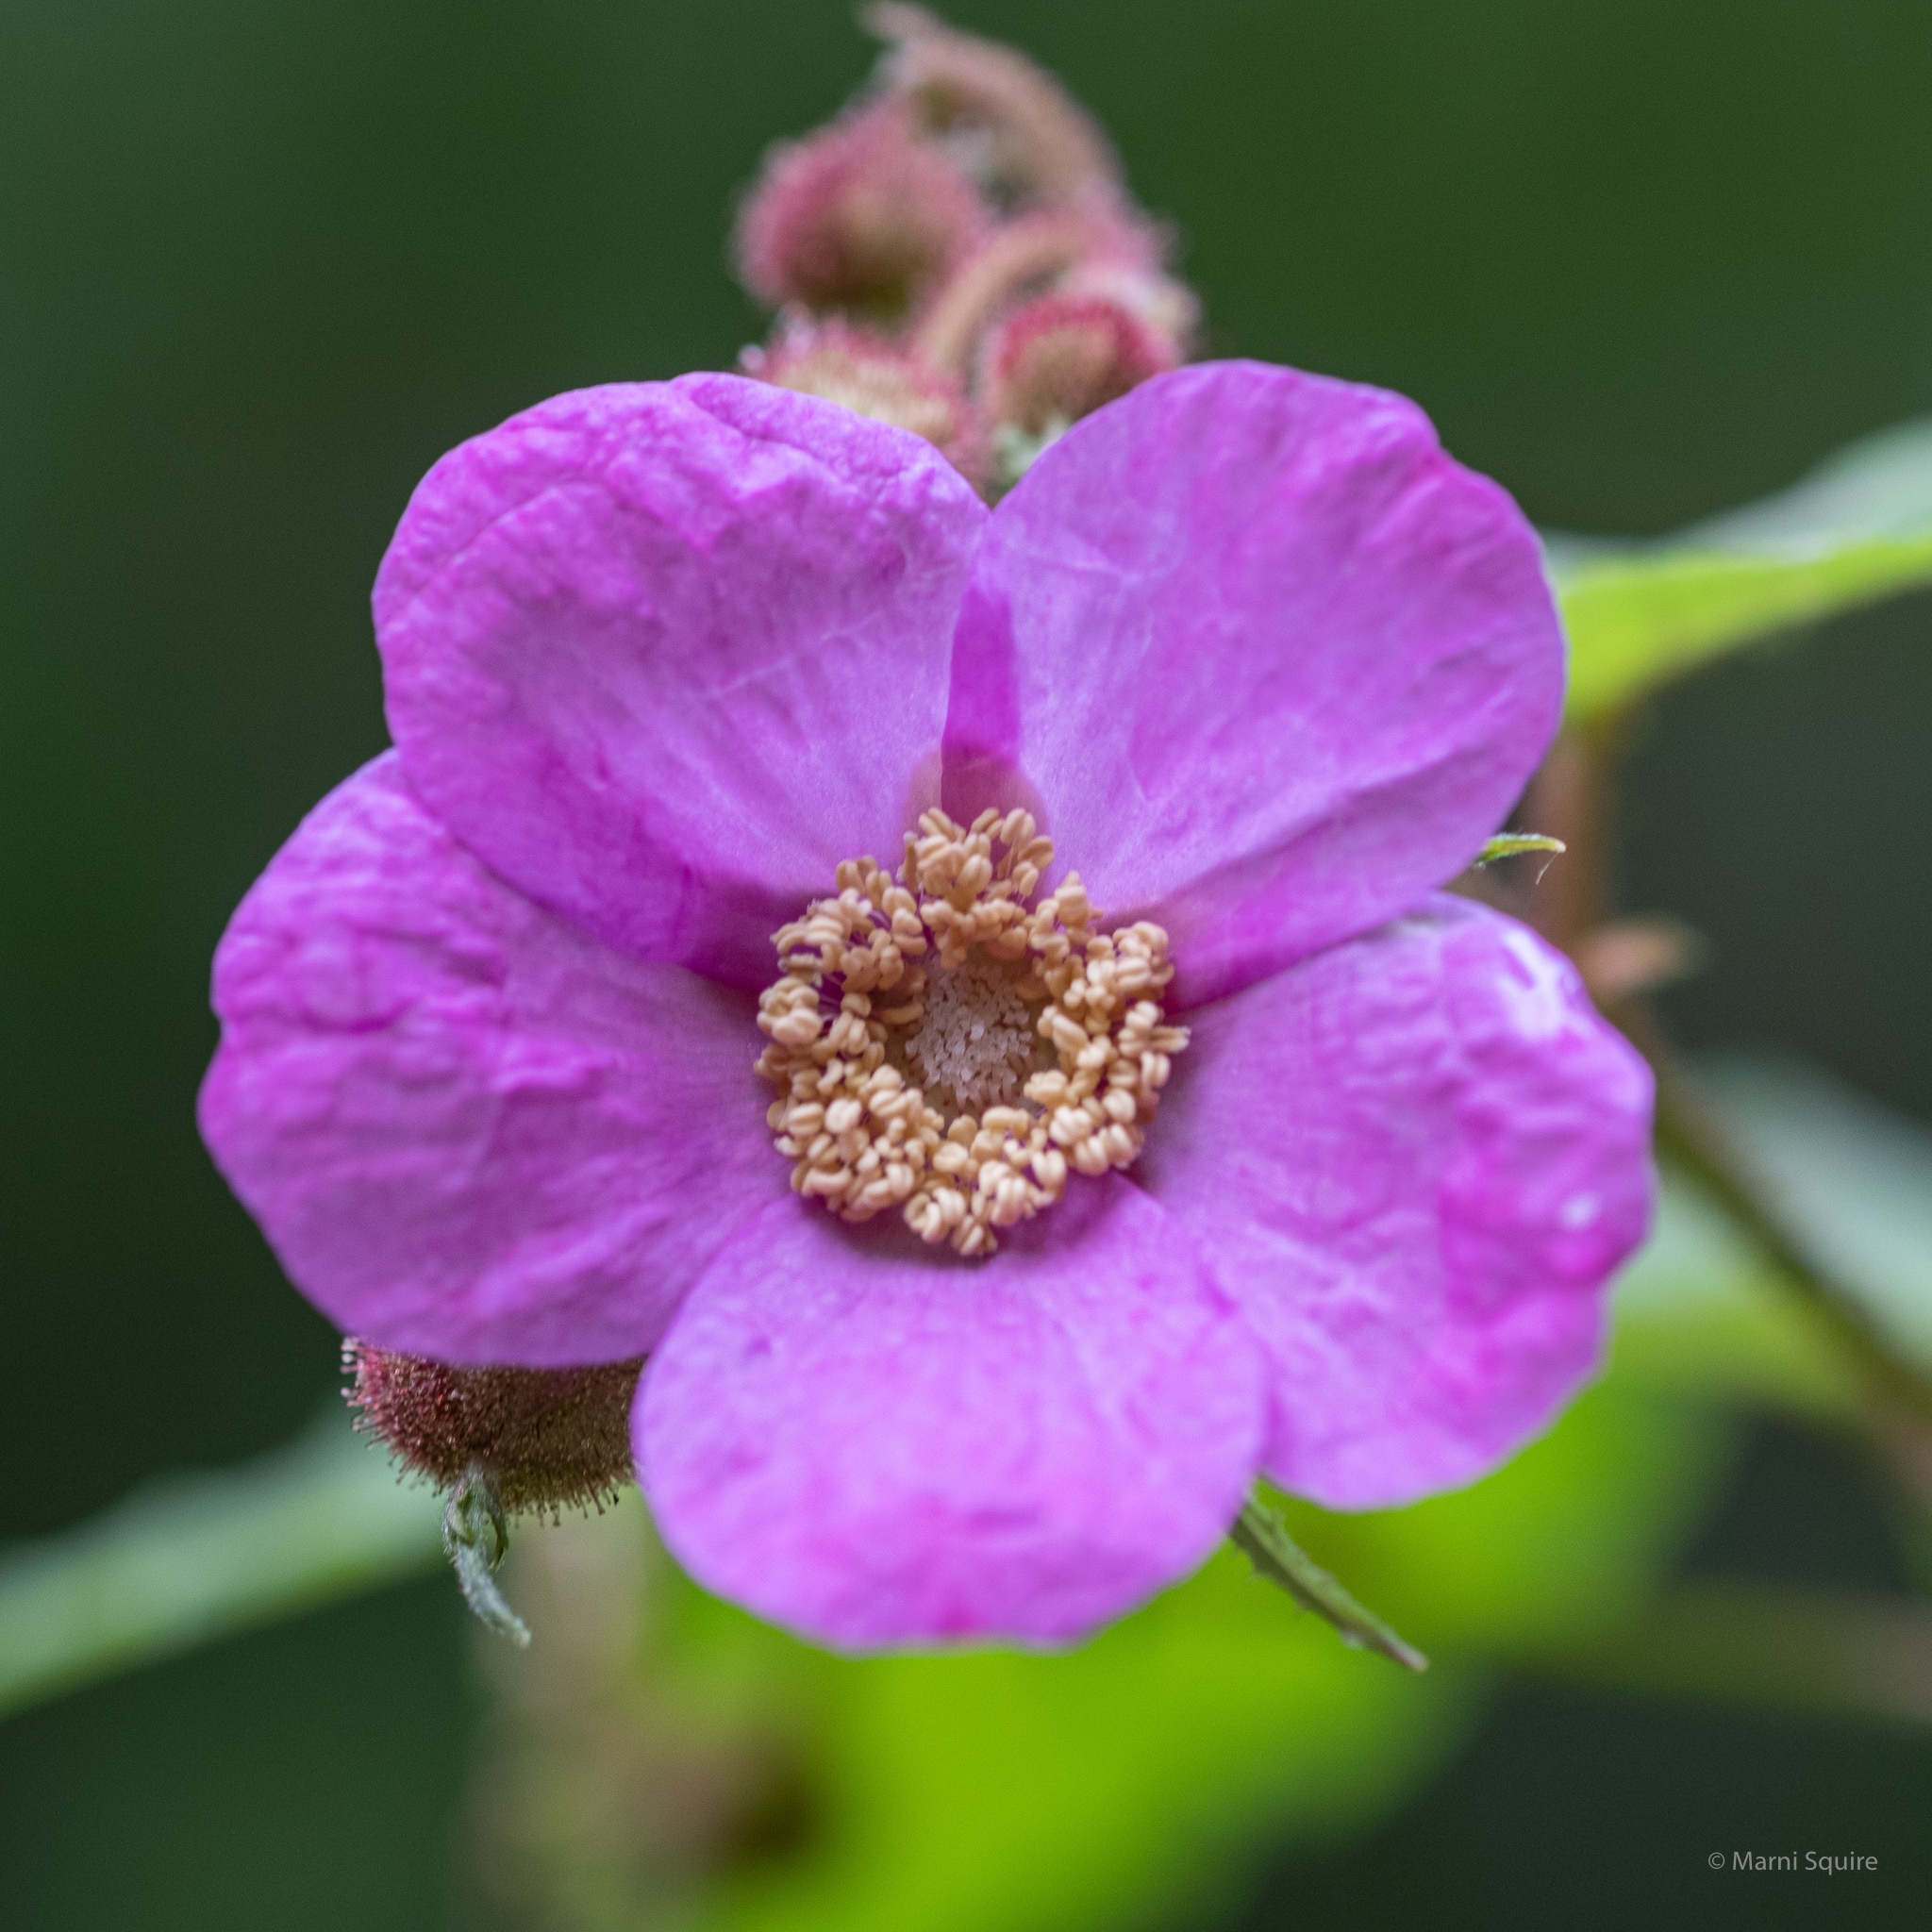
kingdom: Plantae
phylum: Tracheophyta
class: Magnoliopsida
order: Rosales
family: Rosaceae
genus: Rubus
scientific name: Rubus odoratus
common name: Purple-flowered raspberry
